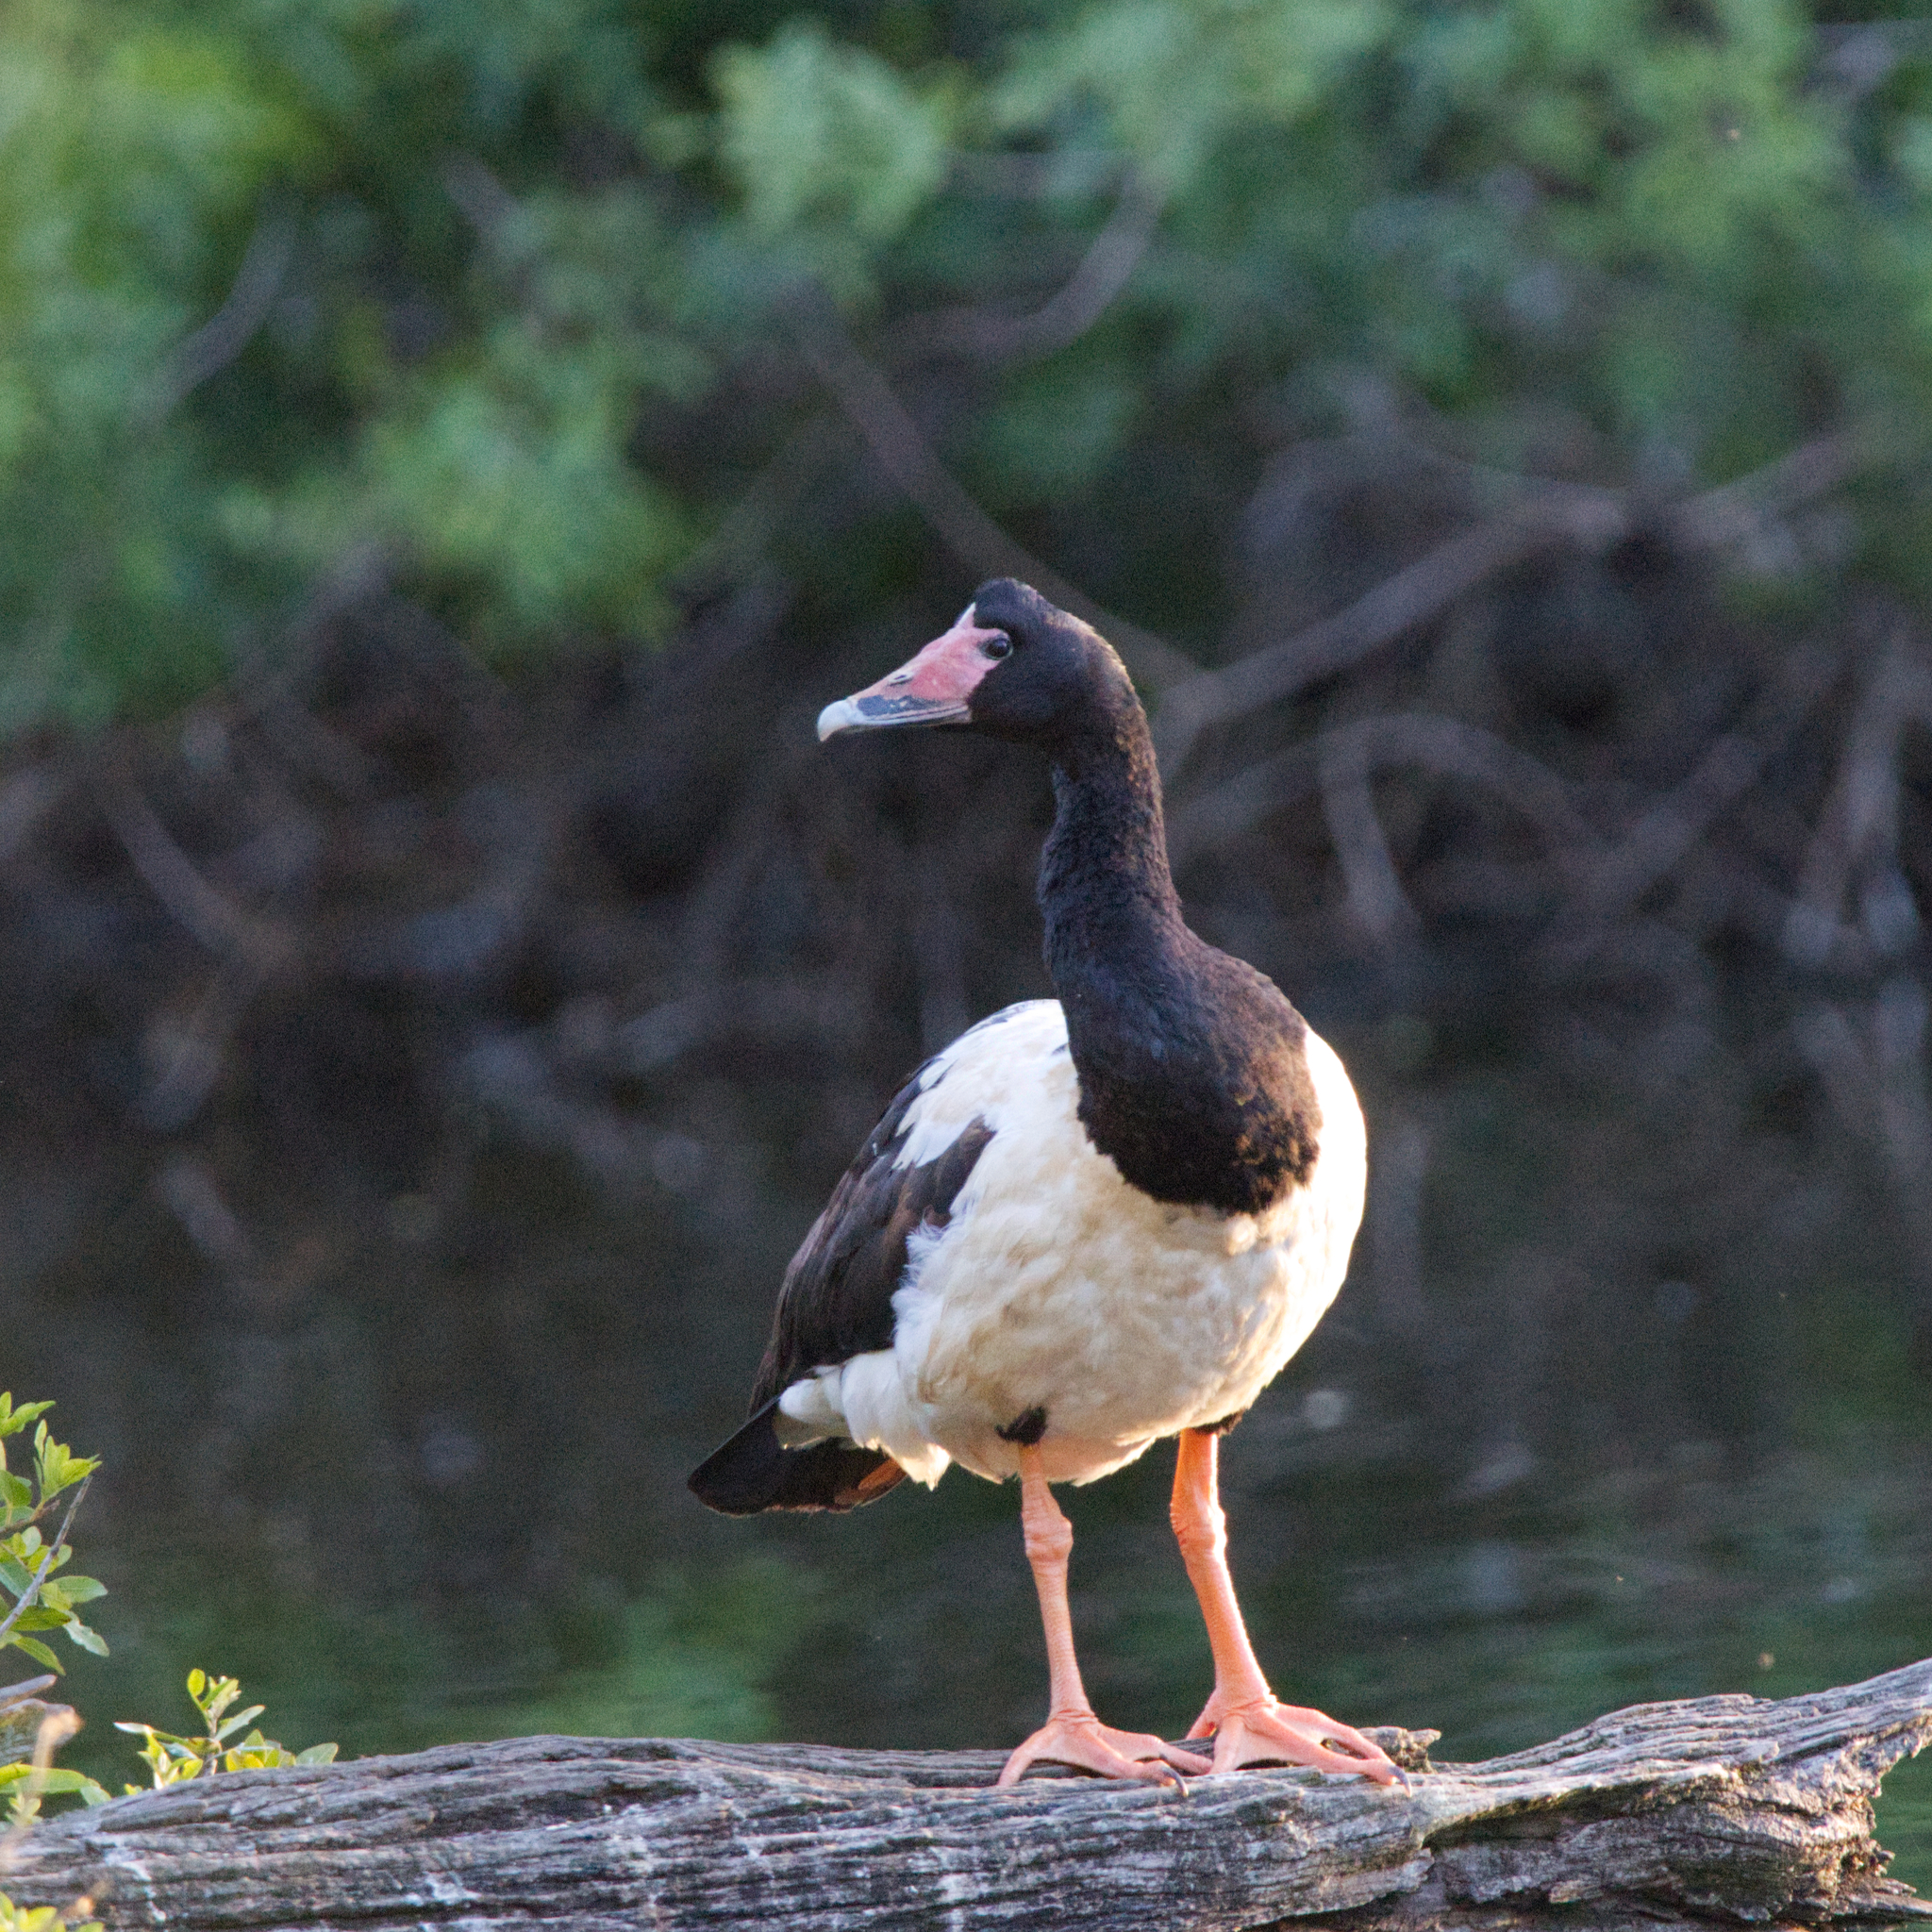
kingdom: Animalia
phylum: Chordata
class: Aves
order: Anseriformes
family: Anseranatidae
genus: Anseranas
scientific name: Anseranas semipalmata
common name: Magpie goose
